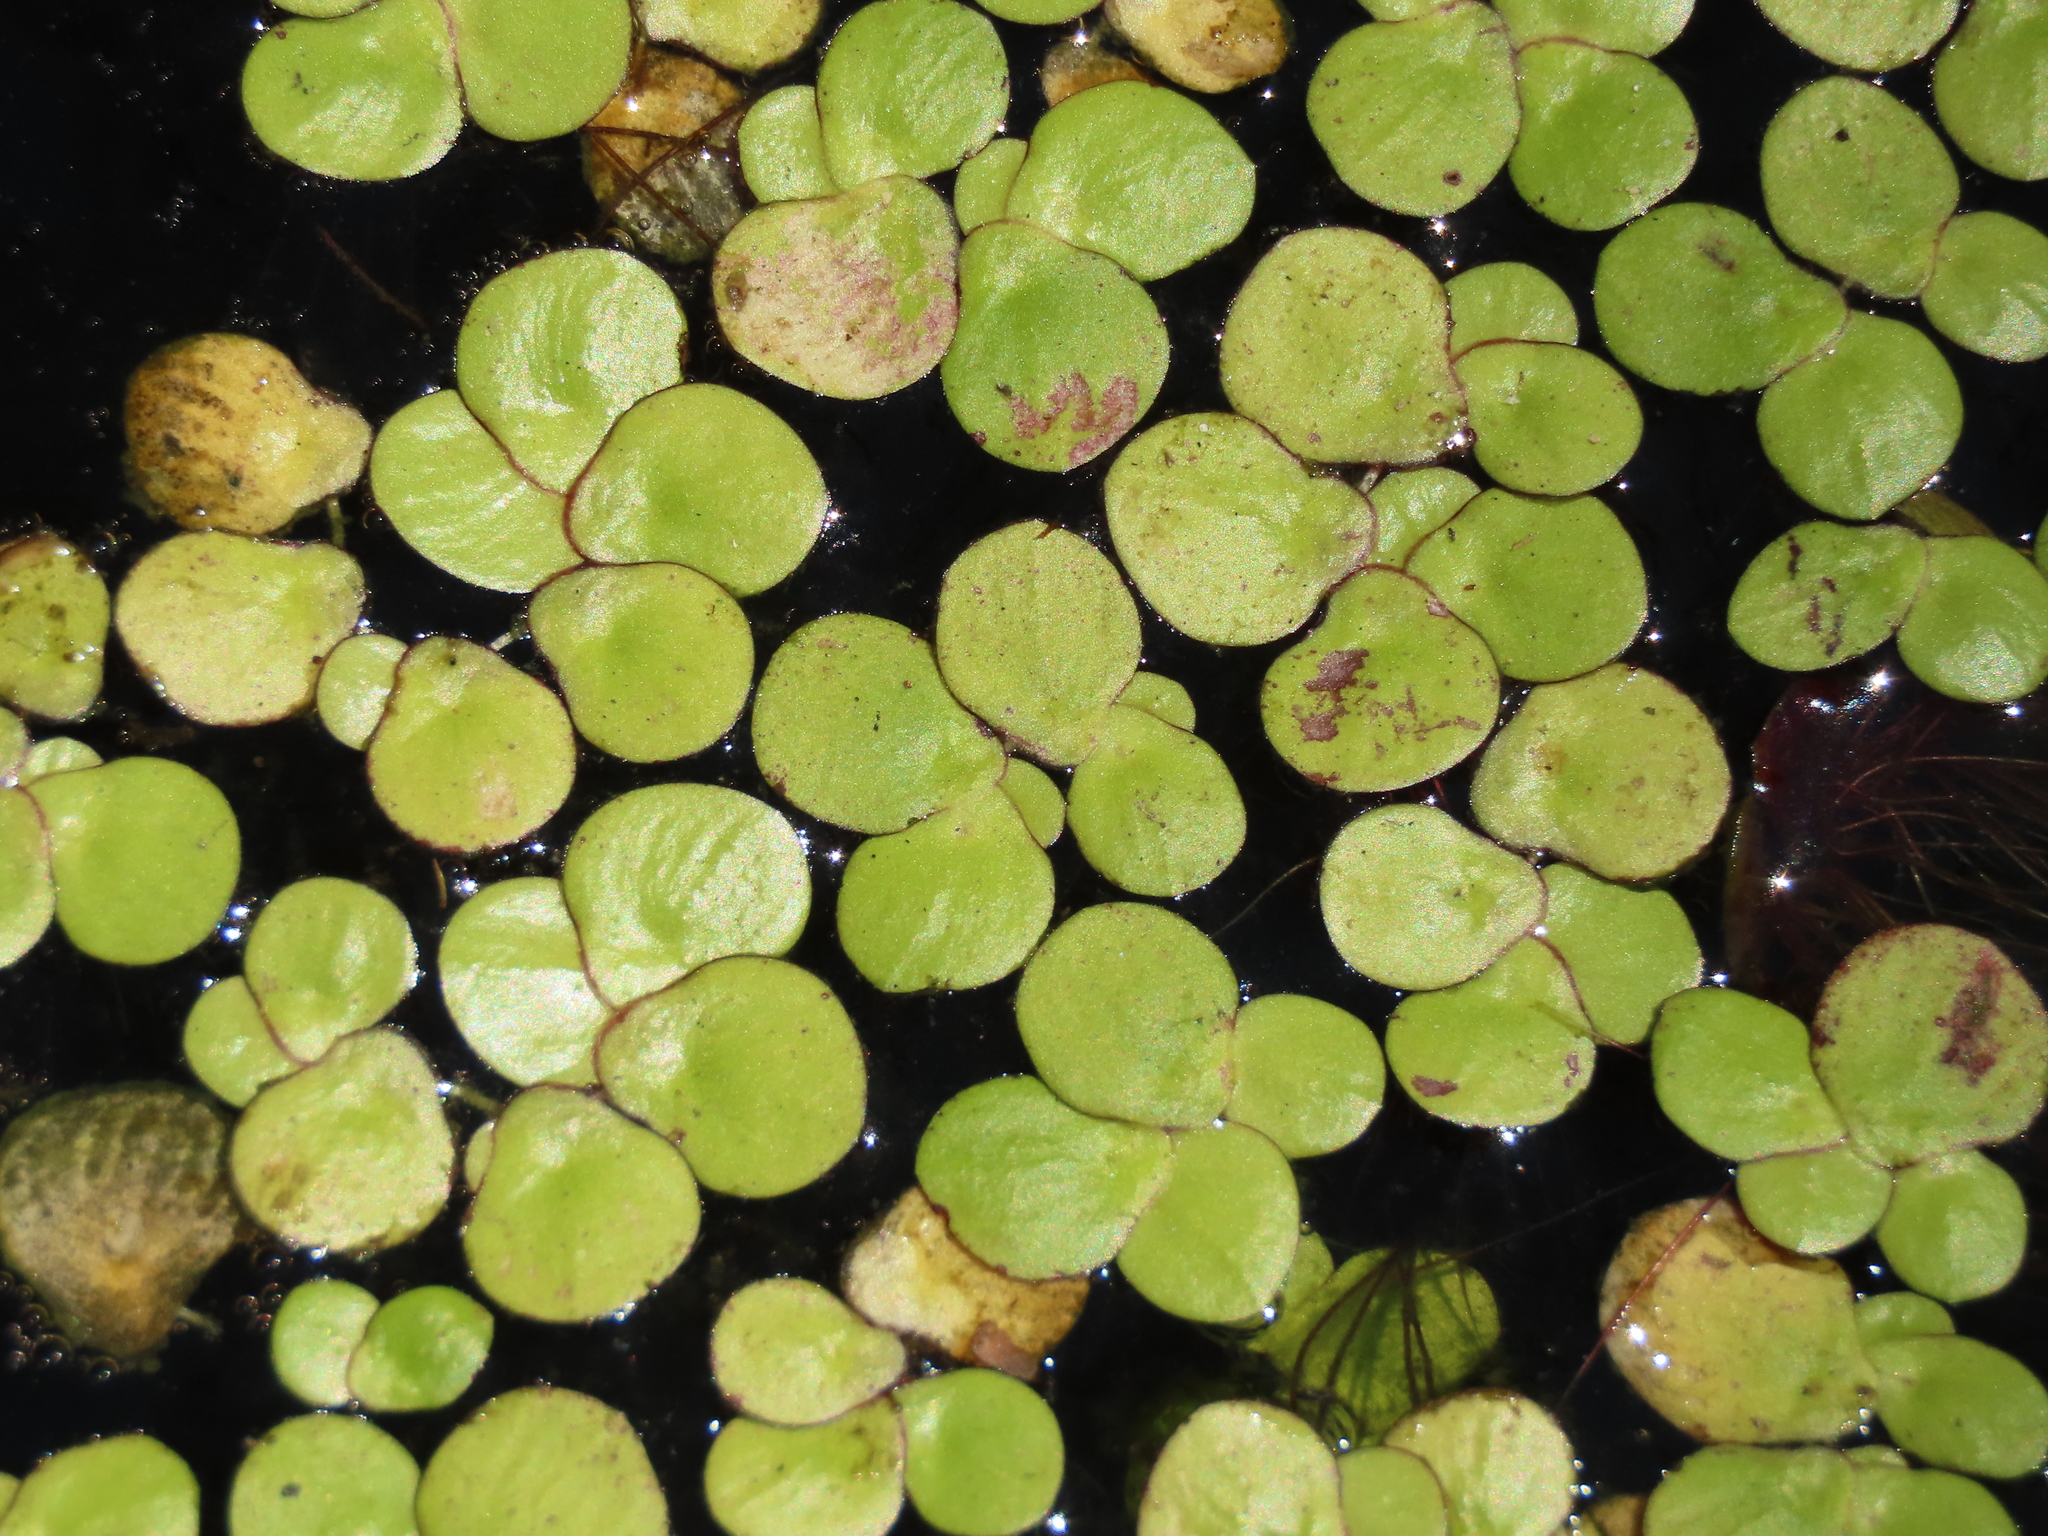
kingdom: Plantae
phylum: Tracheophyta
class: Liliopsida
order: Alismatales
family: Araceae
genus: Spirodela
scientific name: Spirodela polyrhiza
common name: Great duckweed
